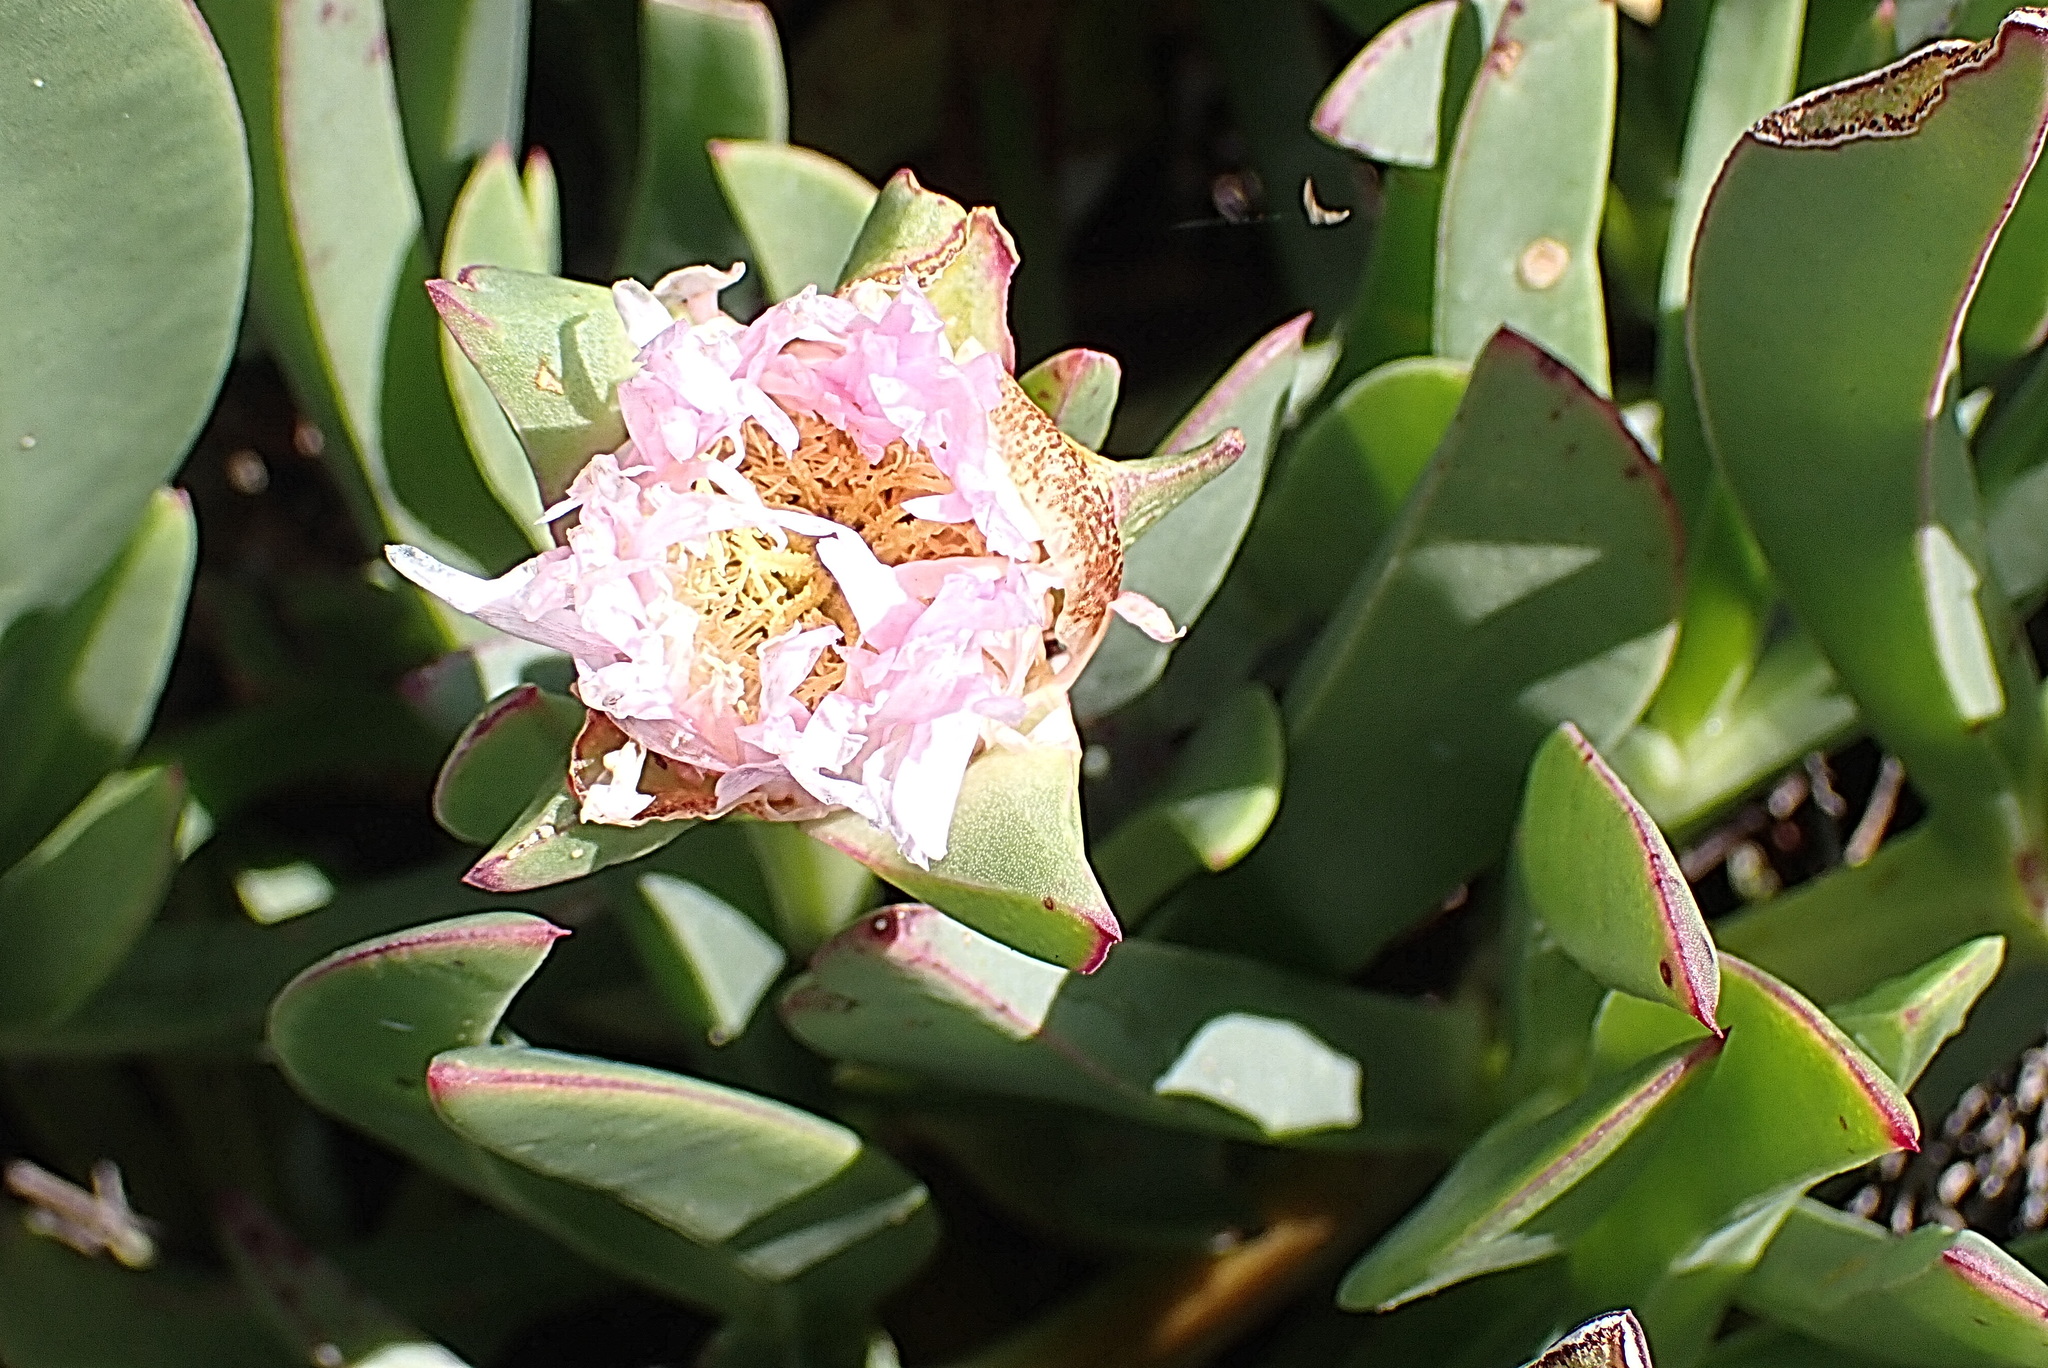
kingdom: Plantae
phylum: Tracheophyta
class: Magnoliopsida
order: Caryophyllales
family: Aizoaceae
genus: Carpobrotus
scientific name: Carpobrotus edulis
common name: Hottentot-fig
